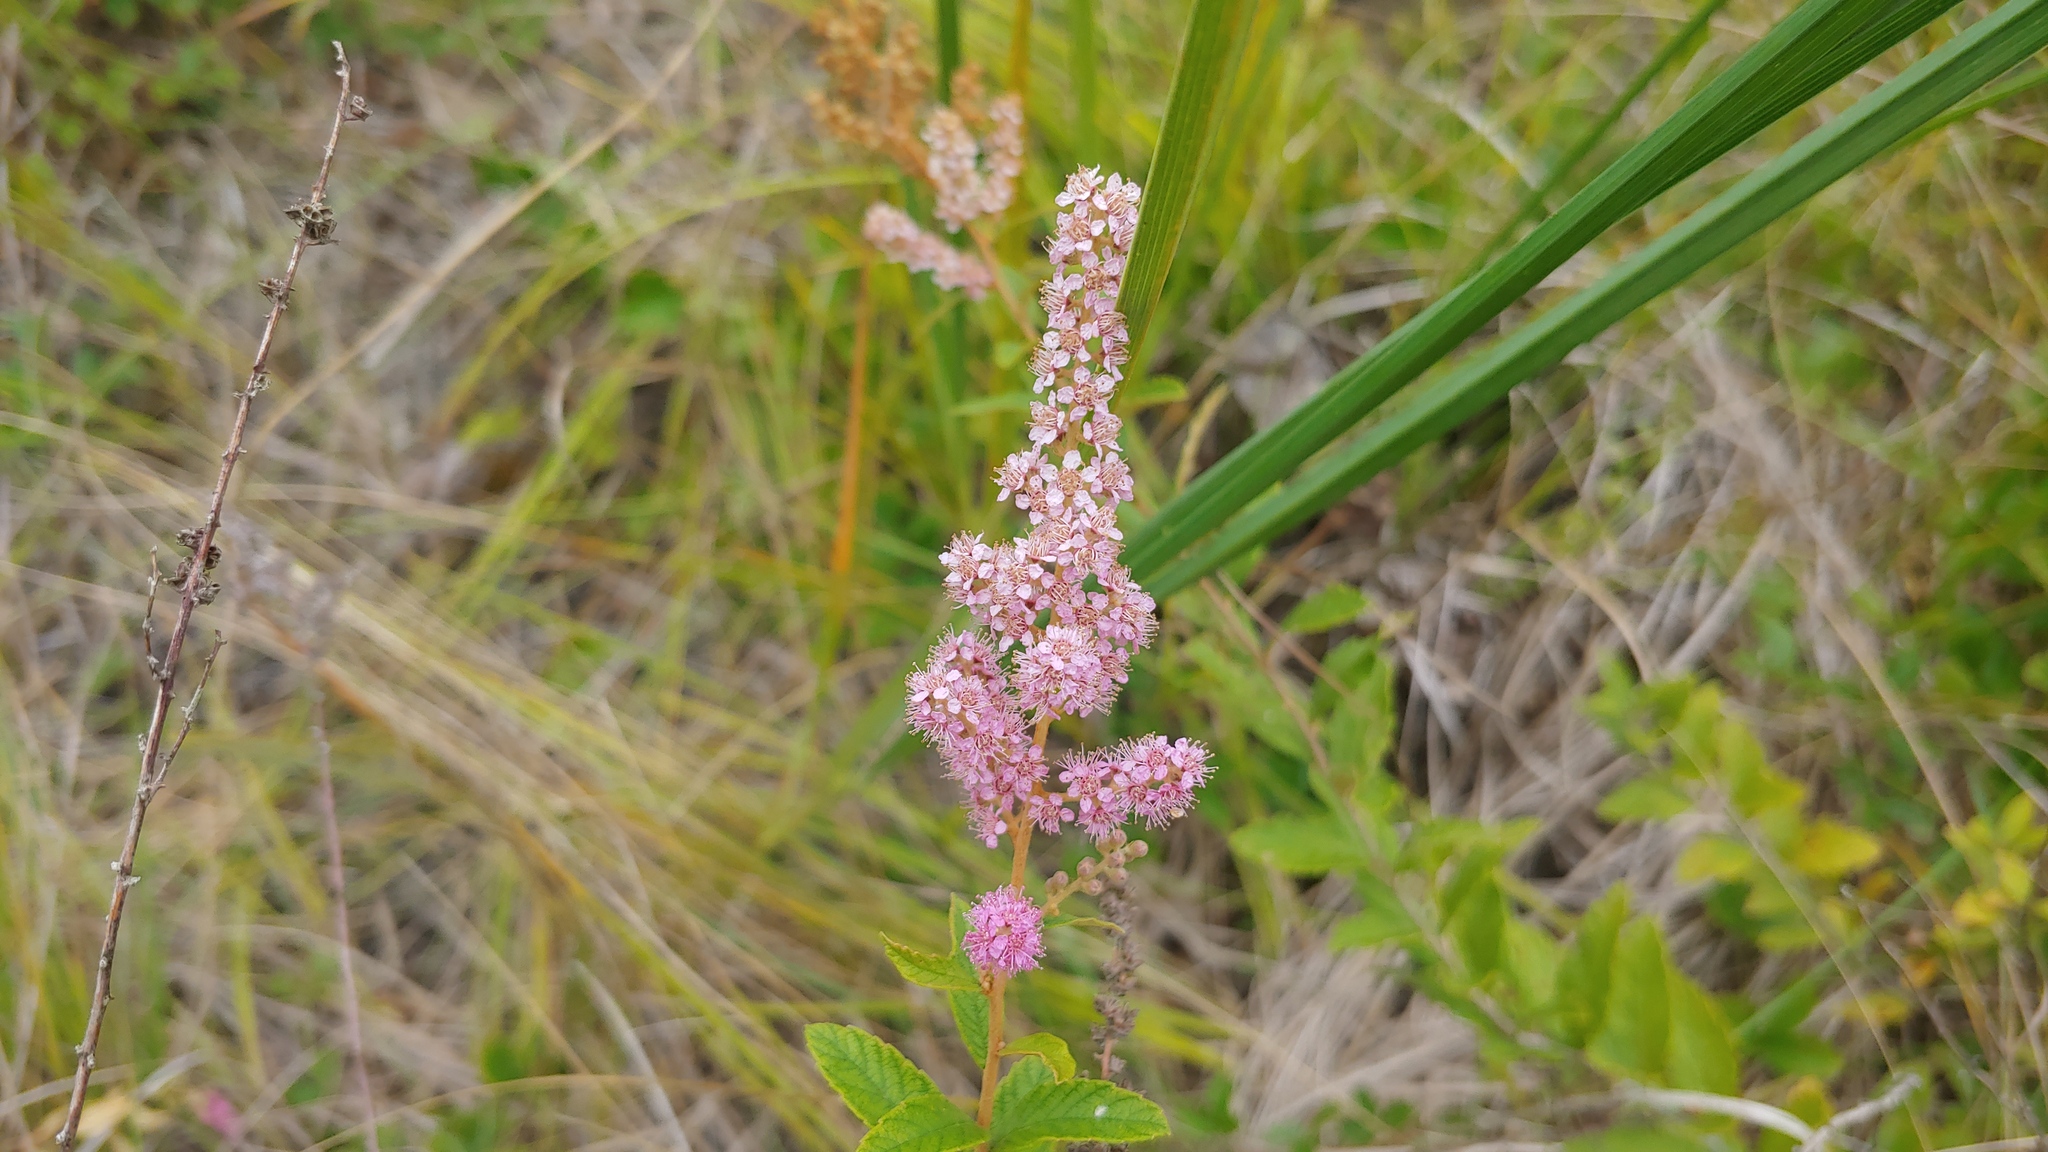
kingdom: Plantae
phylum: Tracheophyta
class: Magnoliopsida
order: Rosales
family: Rosaceae
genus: Spiraea
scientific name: Spiraea tomentosa
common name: Hardhack
